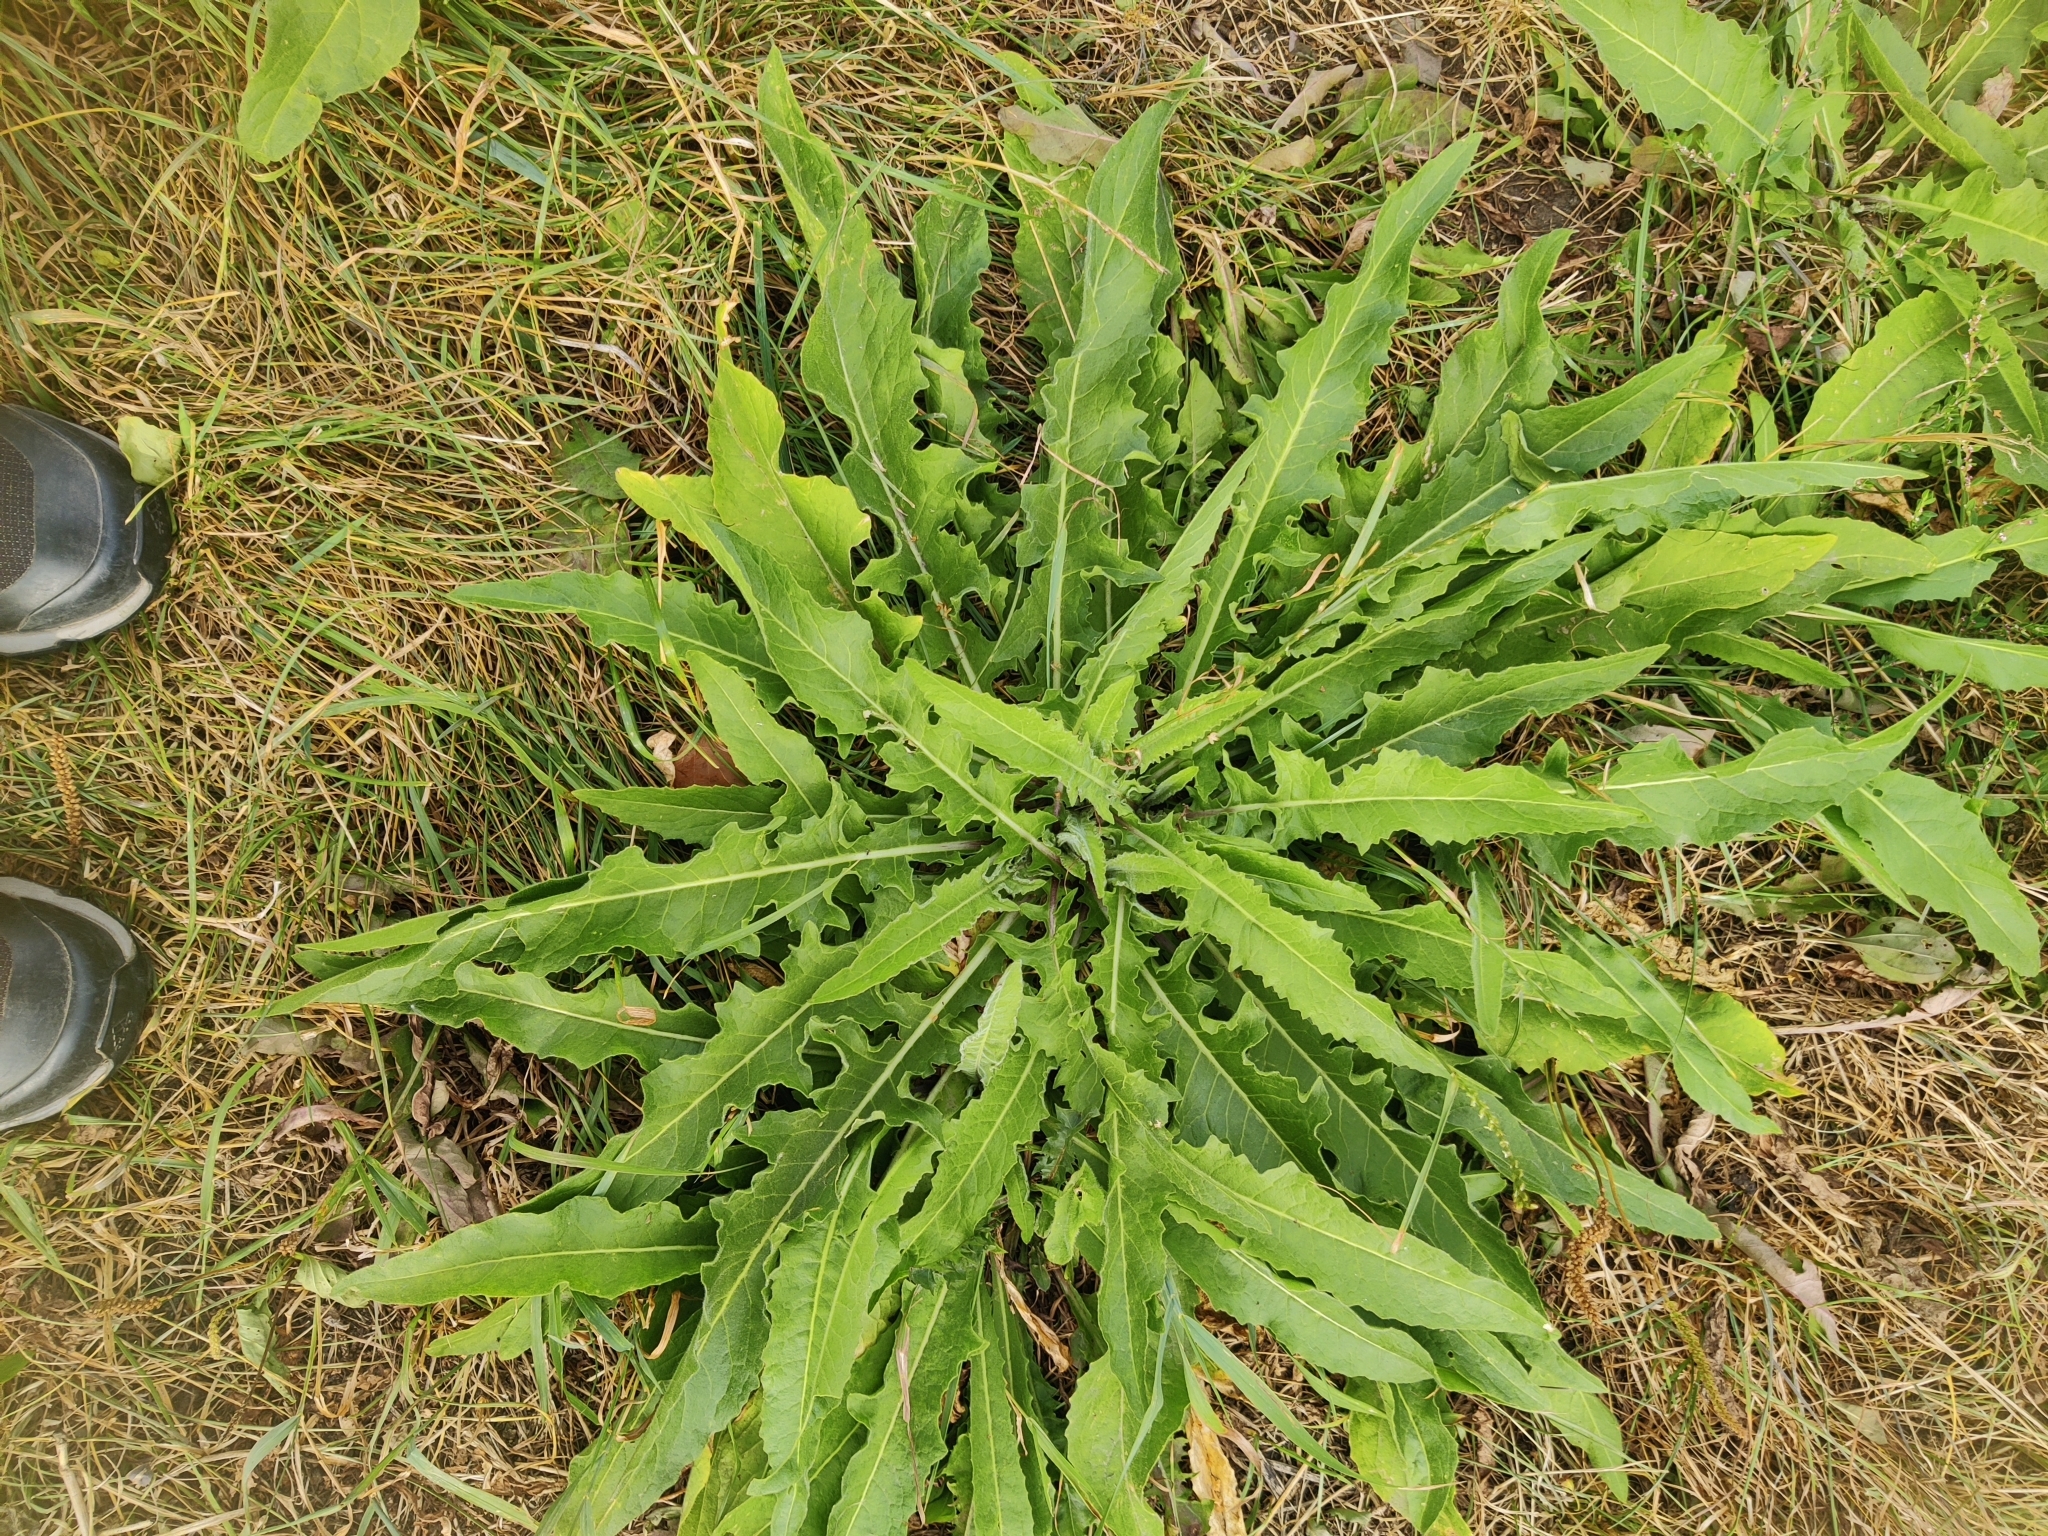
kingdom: Plantae
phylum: Tracheophyta
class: Magnoliopsida
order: Brassicales
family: Brassicaceae
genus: Bunias
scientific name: Bunias orientalis
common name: Warty-cabbage
